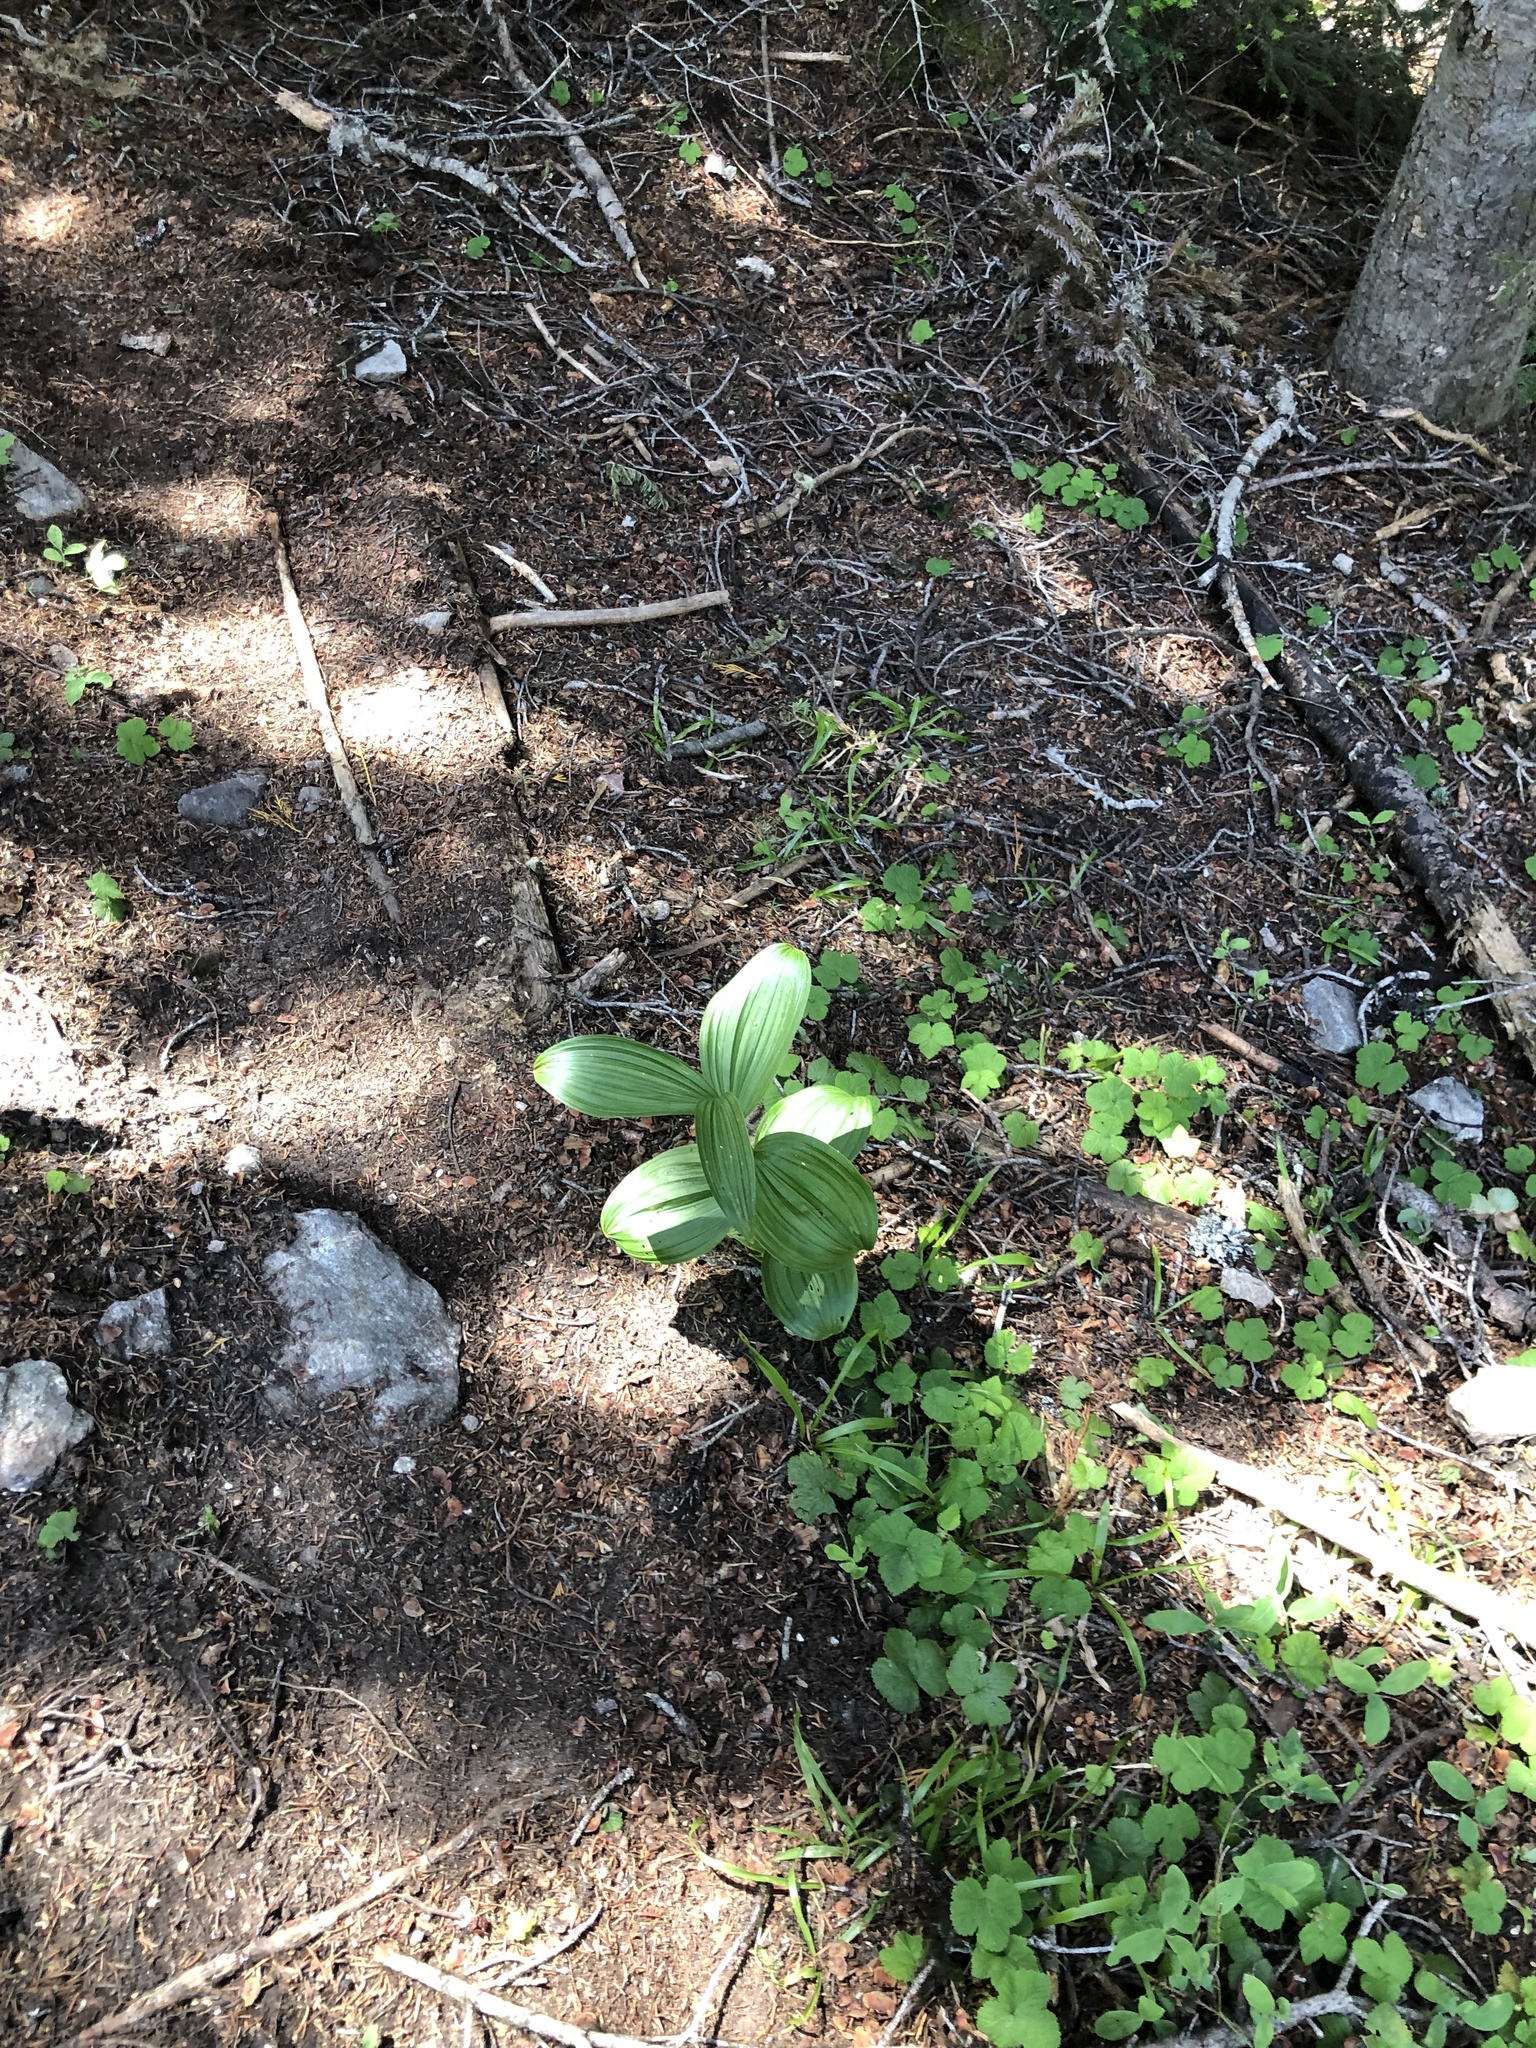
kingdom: Plantae
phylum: Tracheophyta
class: Liliopsida
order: Liliales
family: Melanthiaceae
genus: Veratrum
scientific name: Veratrum viride
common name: American false hellebore
